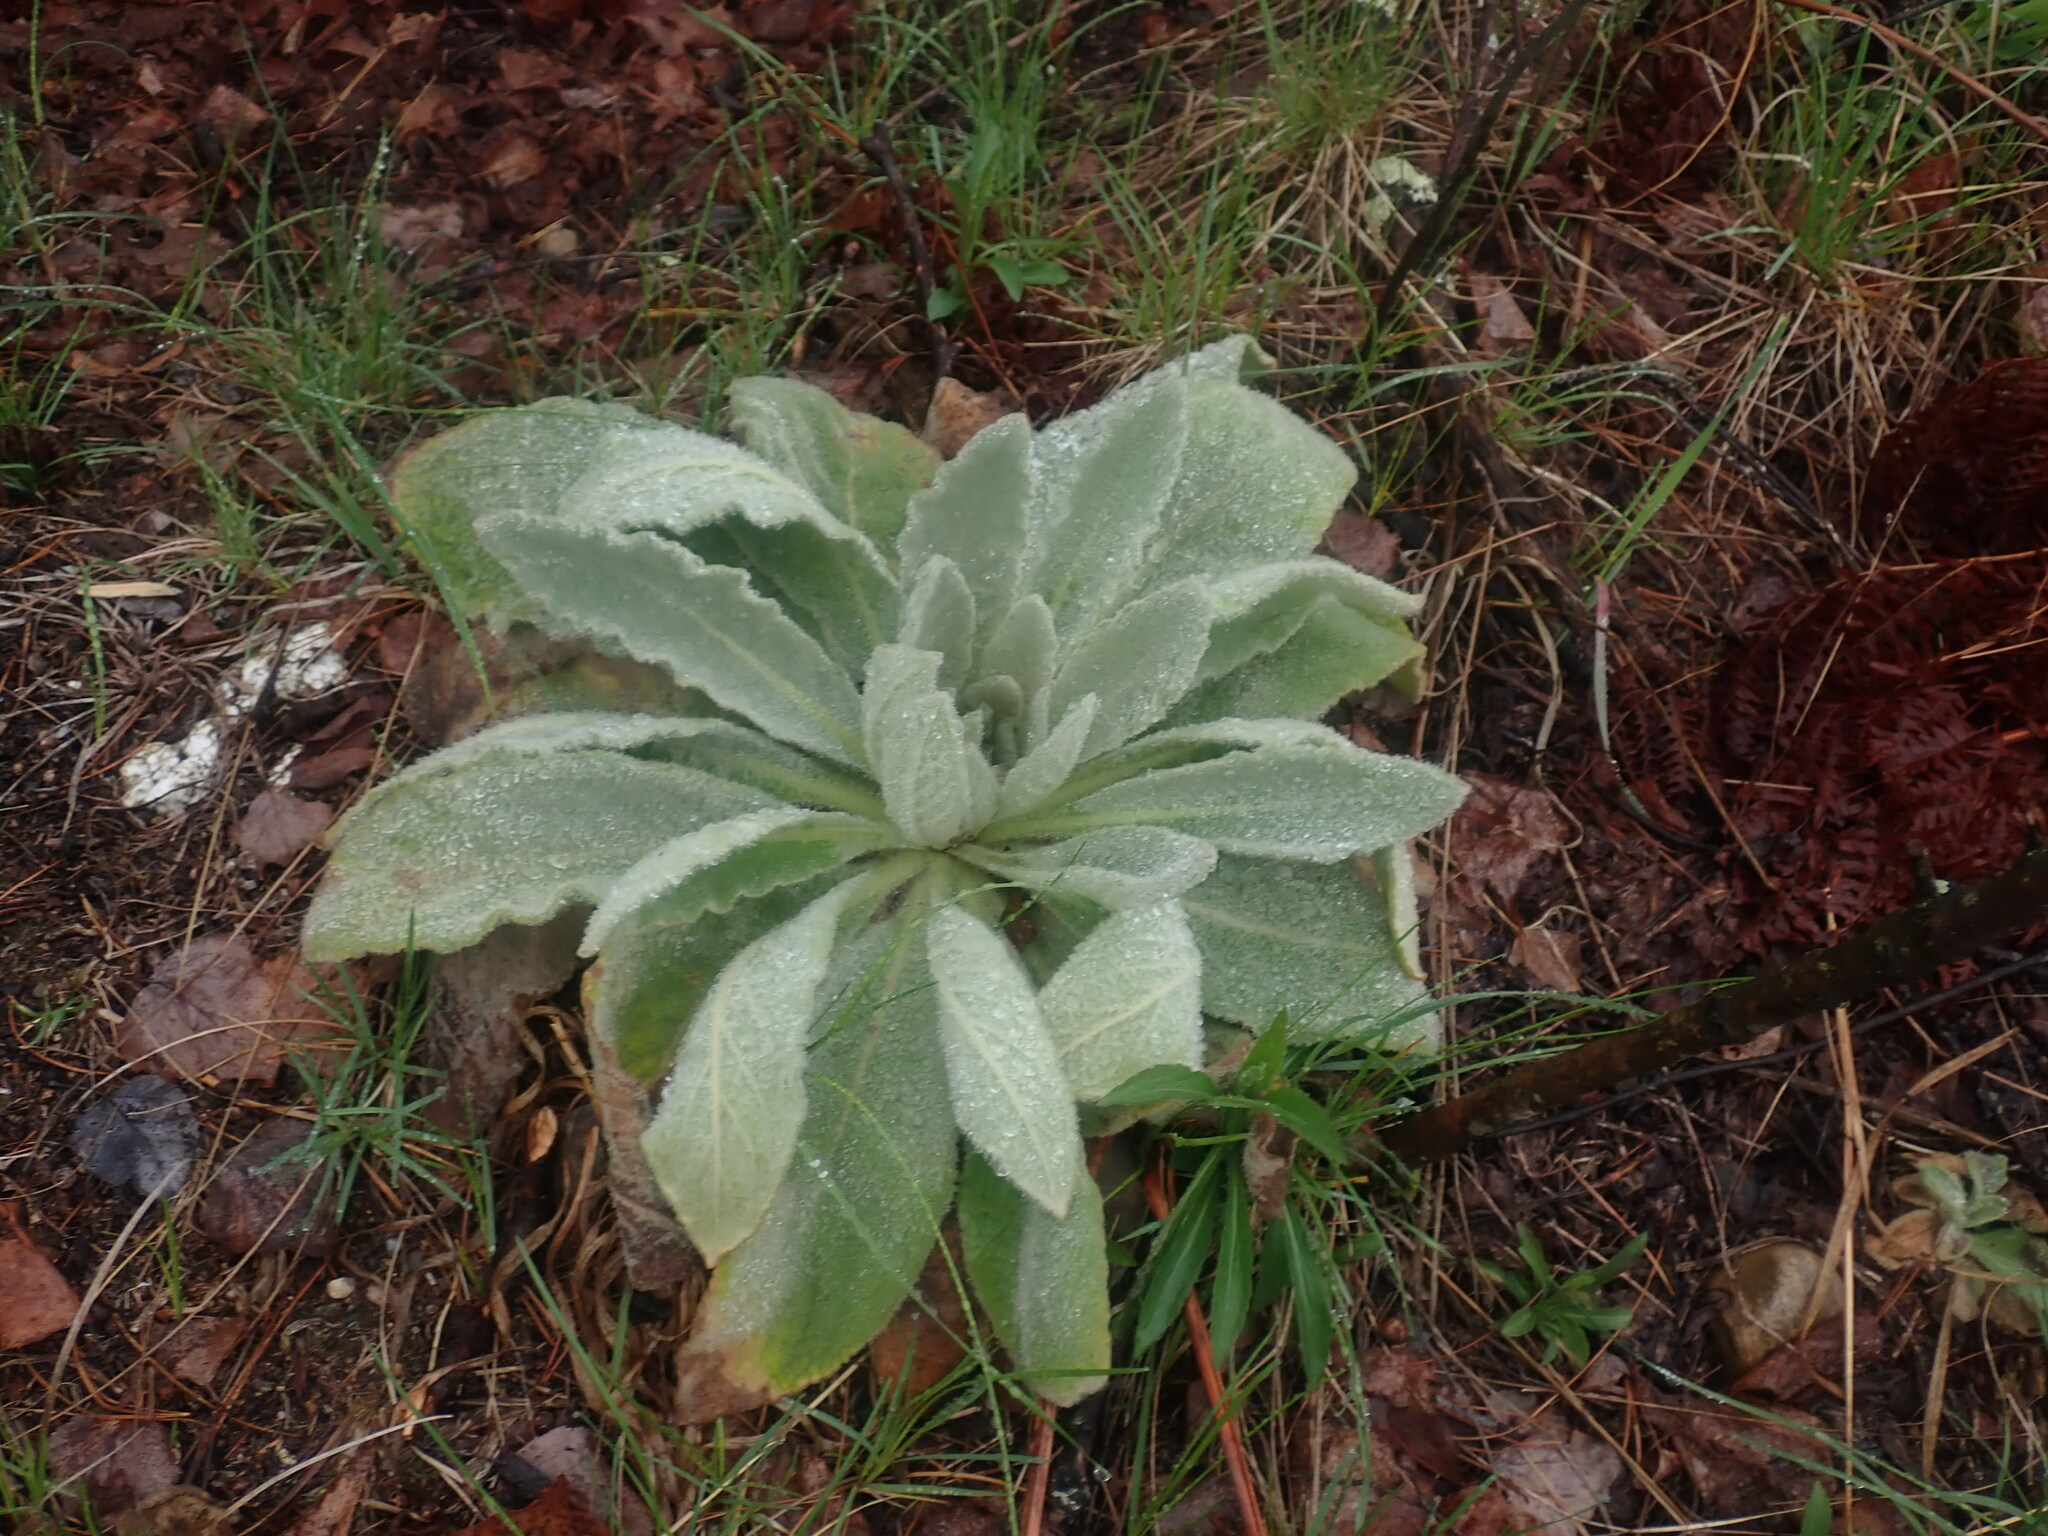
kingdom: Plantae
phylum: Tracheophyta
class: Magnoliopsida
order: Lamiales
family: Scrophulariaceae
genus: Verbascum
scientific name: Verbascum thapsus
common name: Common mullein
